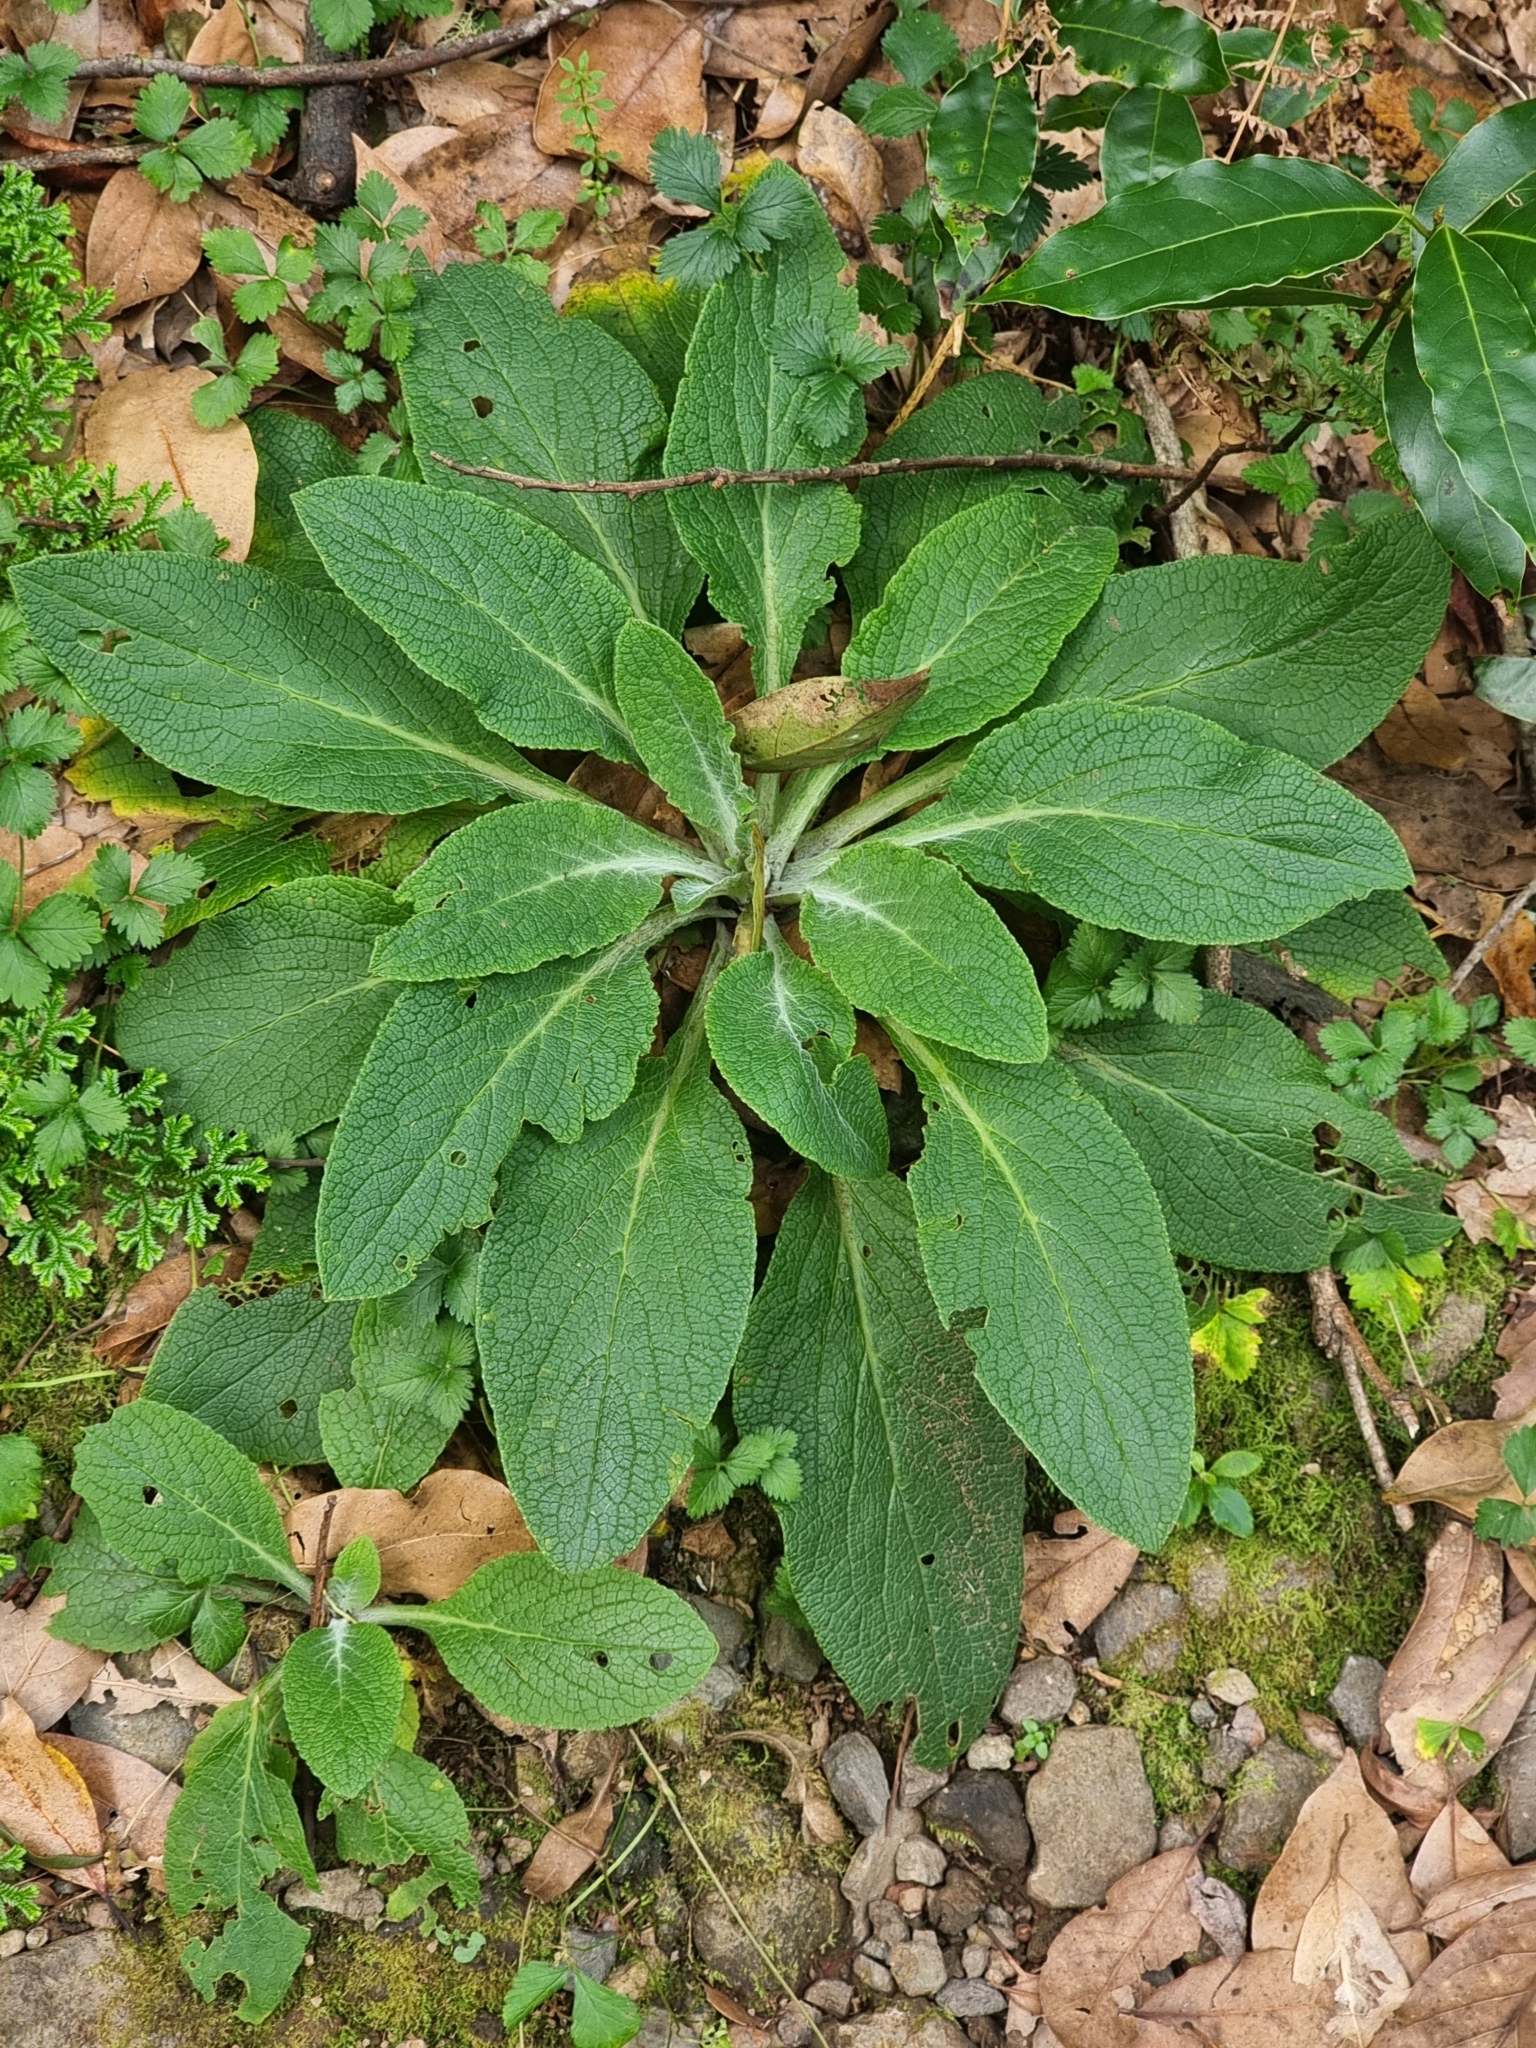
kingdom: Plantae
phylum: Tracheophyta
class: Magnoliopsida
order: Lamiales
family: Plantaginaceae
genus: Digitalis
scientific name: Digitalis purpurea
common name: Foxglove
